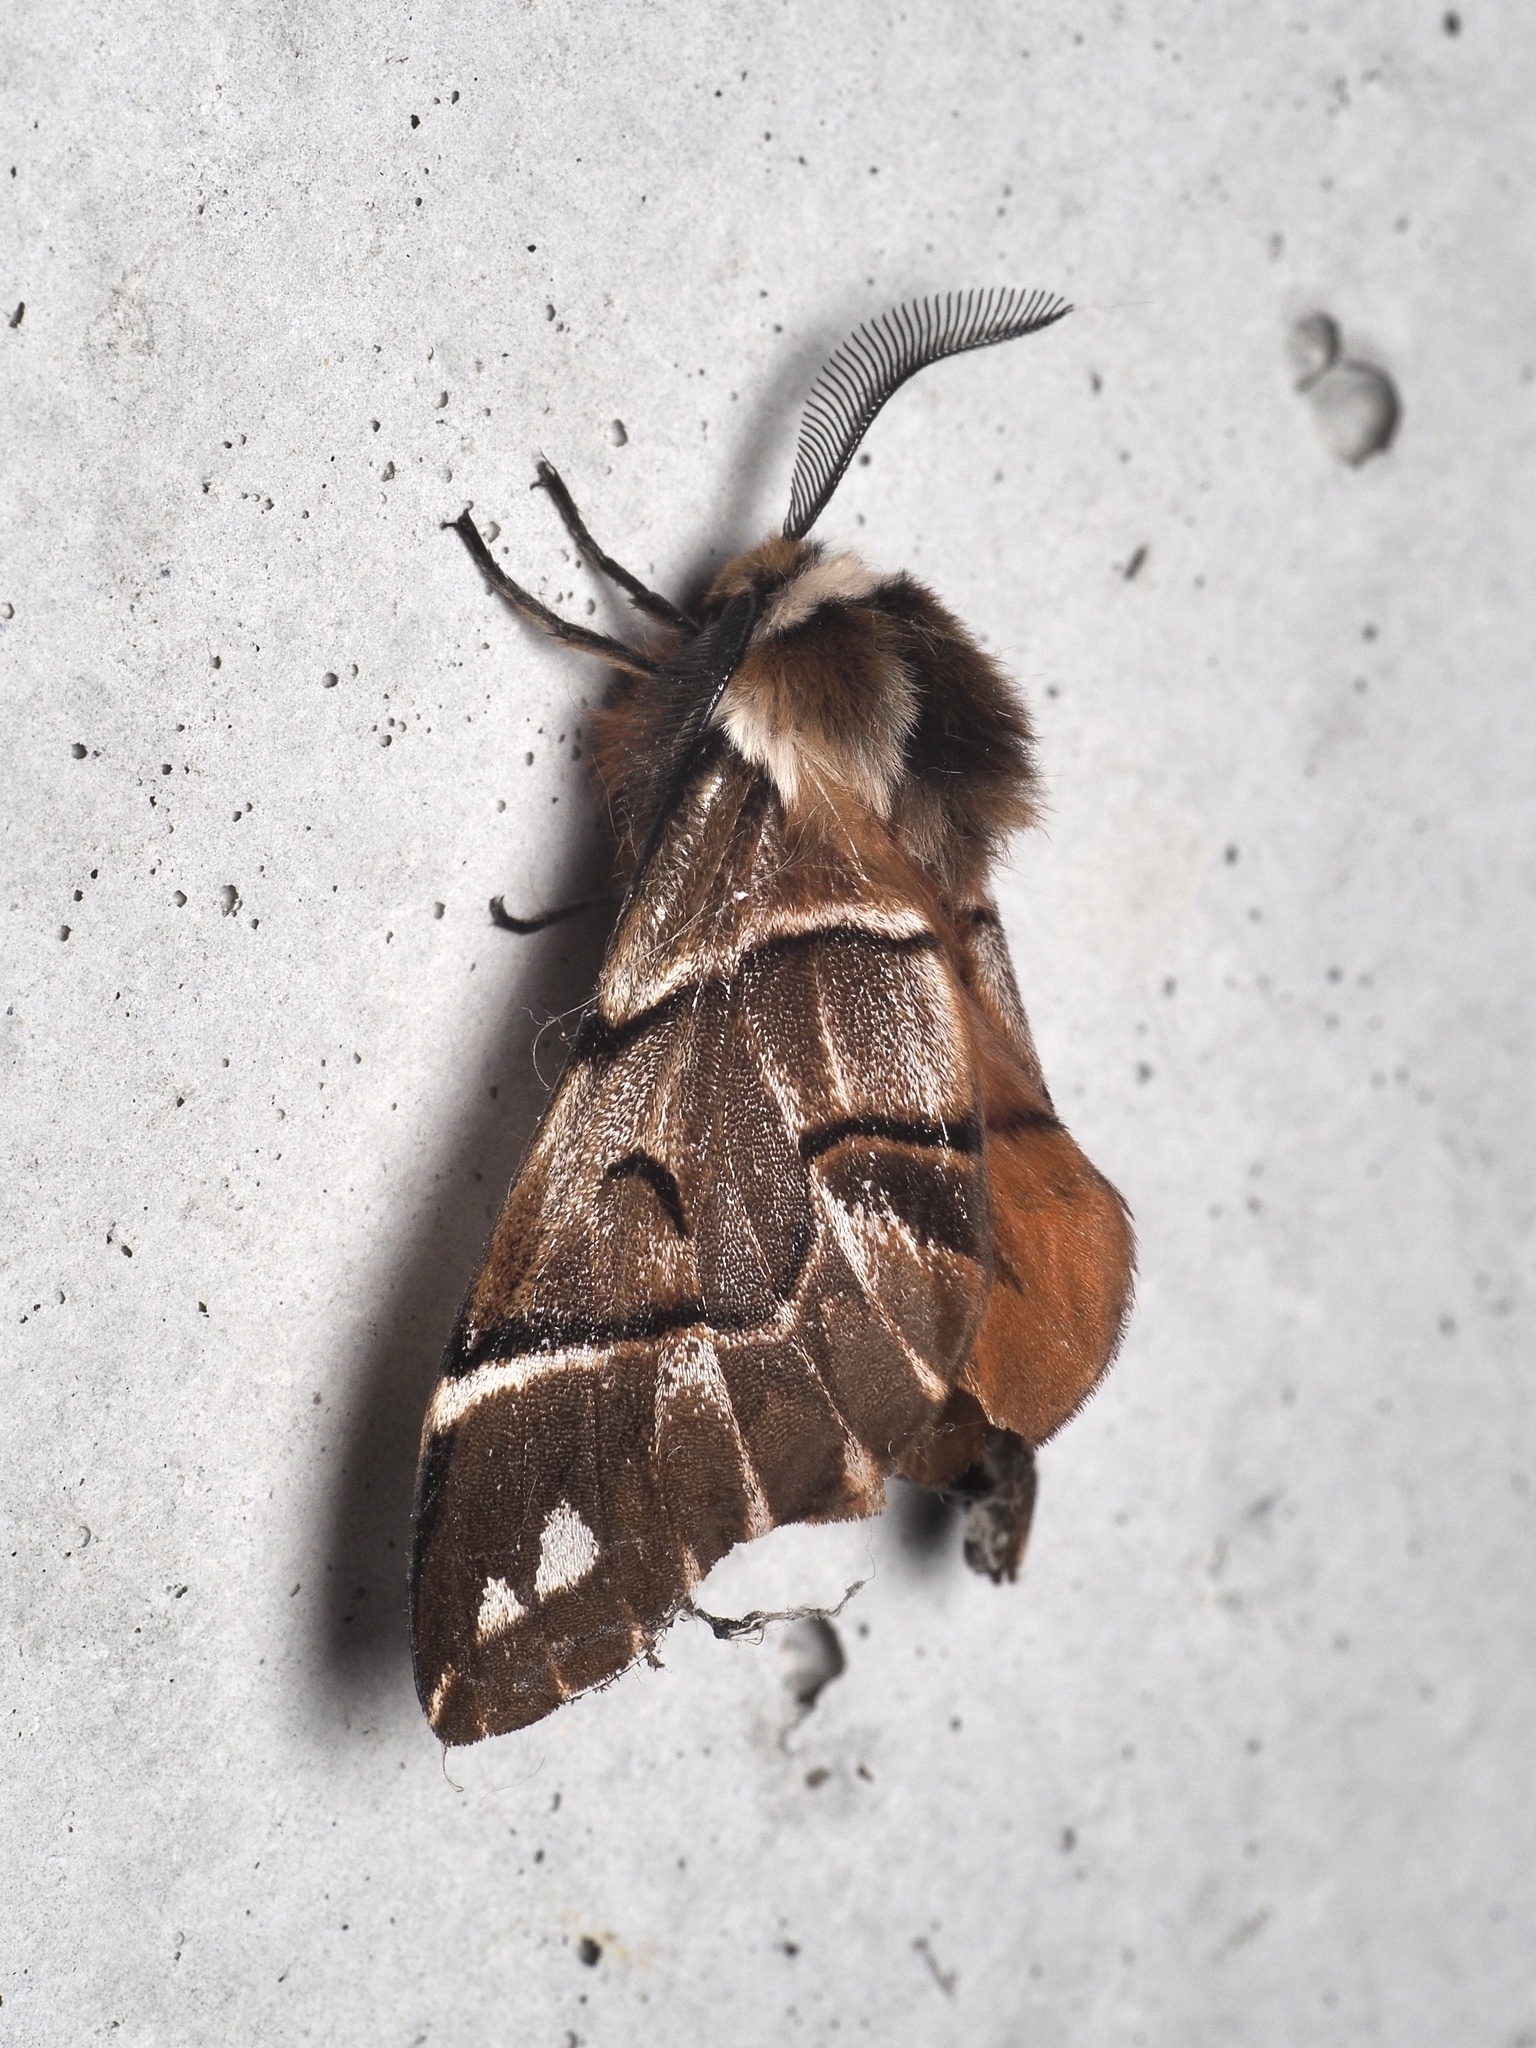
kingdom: Animalia
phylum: Arthropoda
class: Insecta
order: Lepidoptera
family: Endromidae
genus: Endromis
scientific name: Endromis versicolora
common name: Kentish glory
